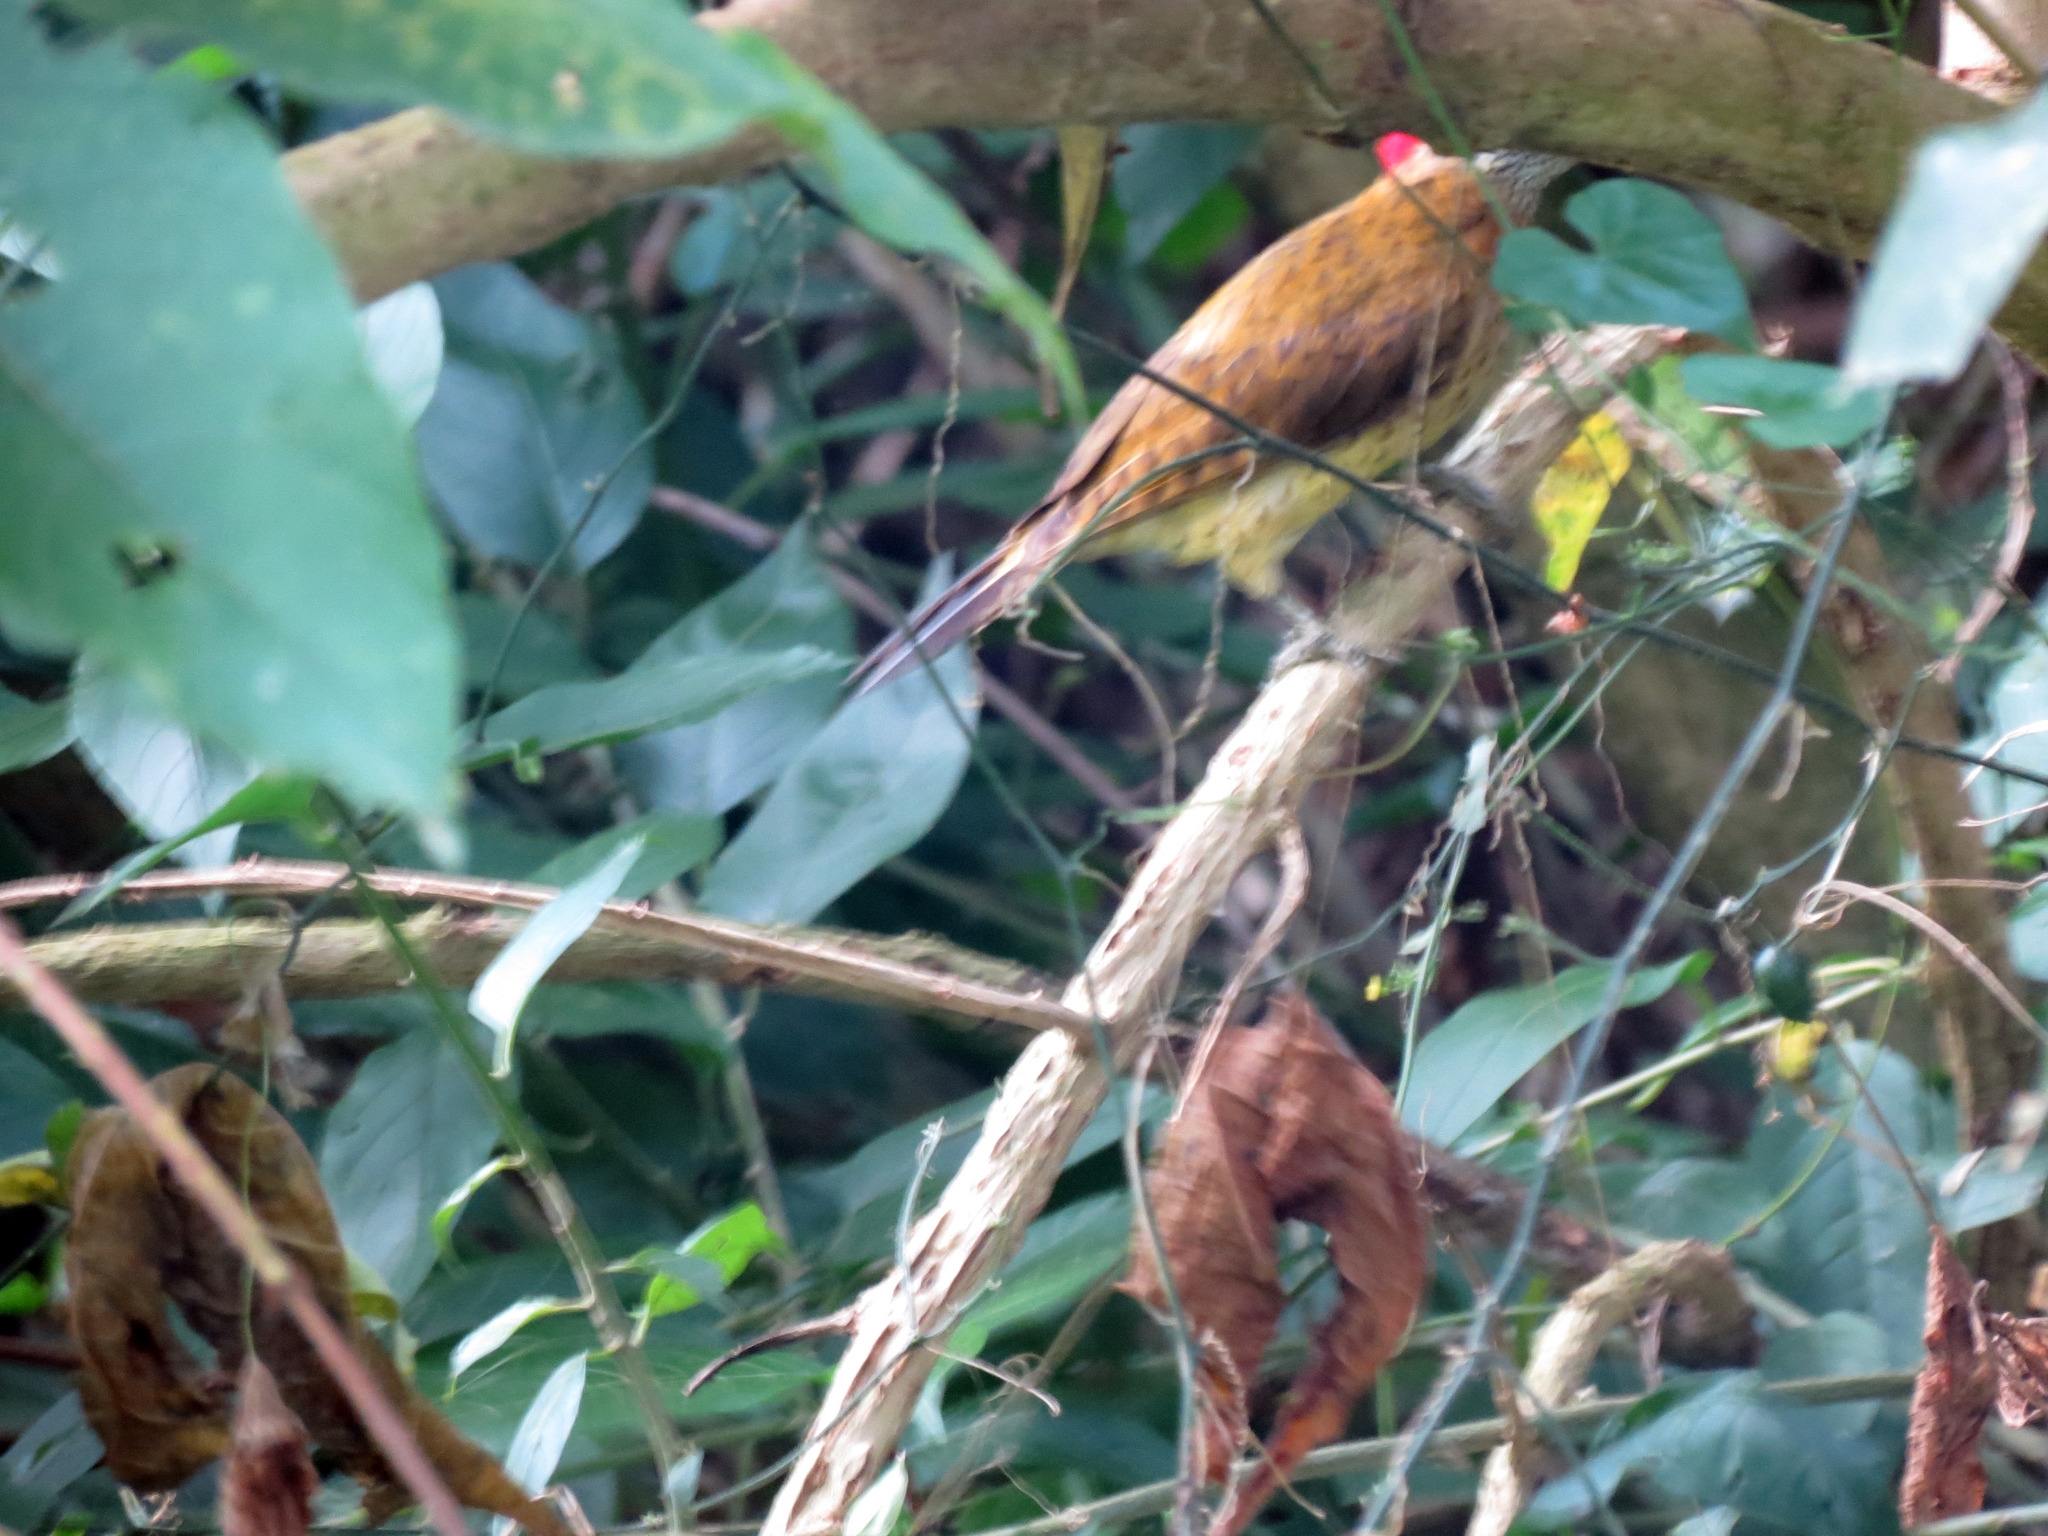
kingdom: Animalia
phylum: Chordata
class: Aves
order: Piciformes
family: Picidae
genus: Colaptes
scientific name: Colaptes punctigula
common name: Spot-breasted woodpecker
